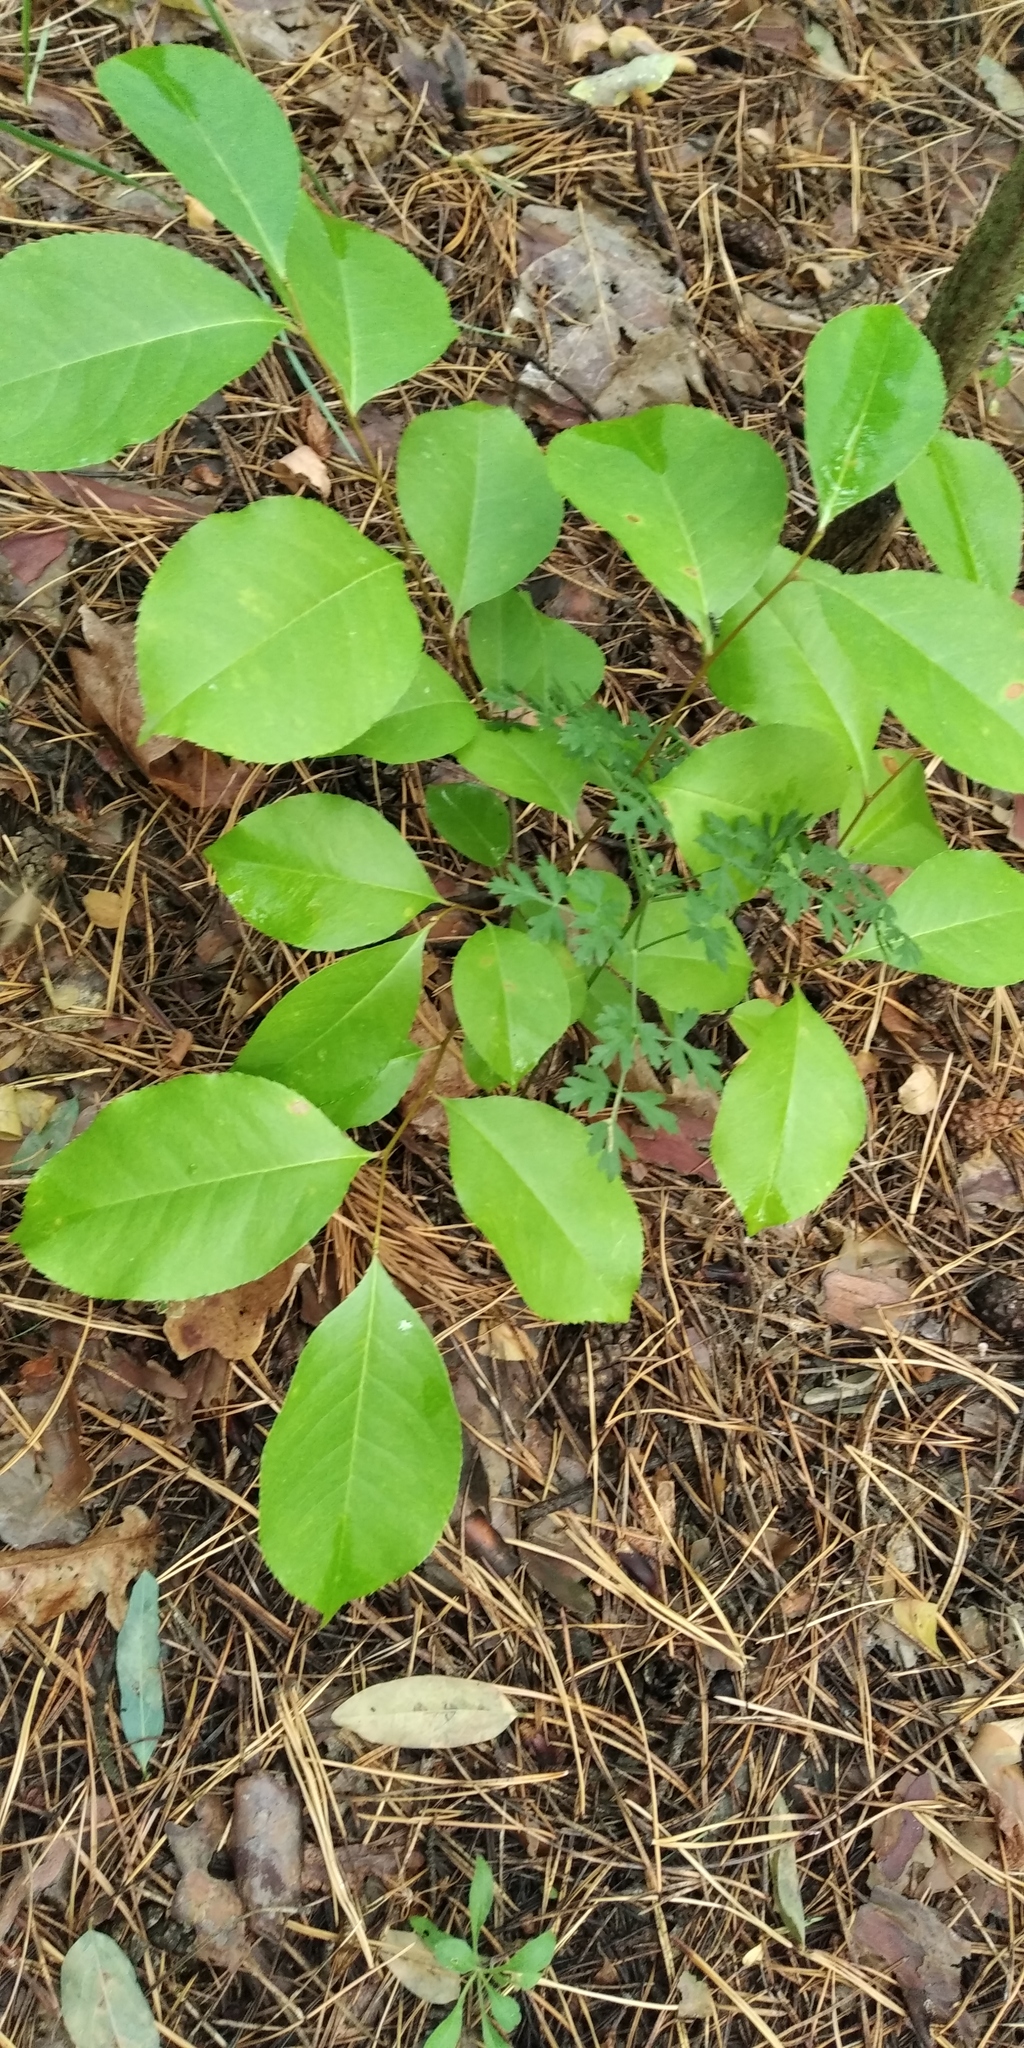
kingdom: Plantae
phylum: Tracheophyta
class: Magnoliopsida
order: Rosales
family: Rosaceae
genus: Prunus
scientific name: Prunus serotina
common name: Black cherry
